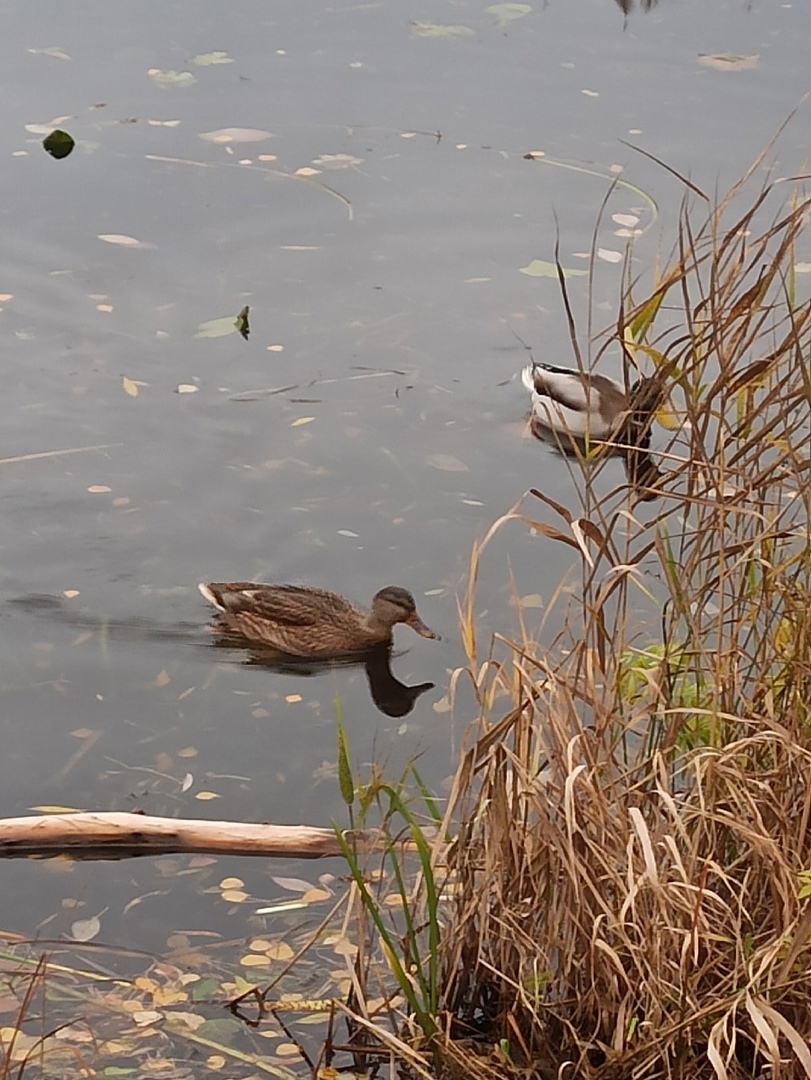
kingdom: Animalia
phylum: Chordata
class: Aves
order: Anseriformes
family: Anatidae
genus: Anas
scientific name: Anas platyrhynchos
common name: Mallard
